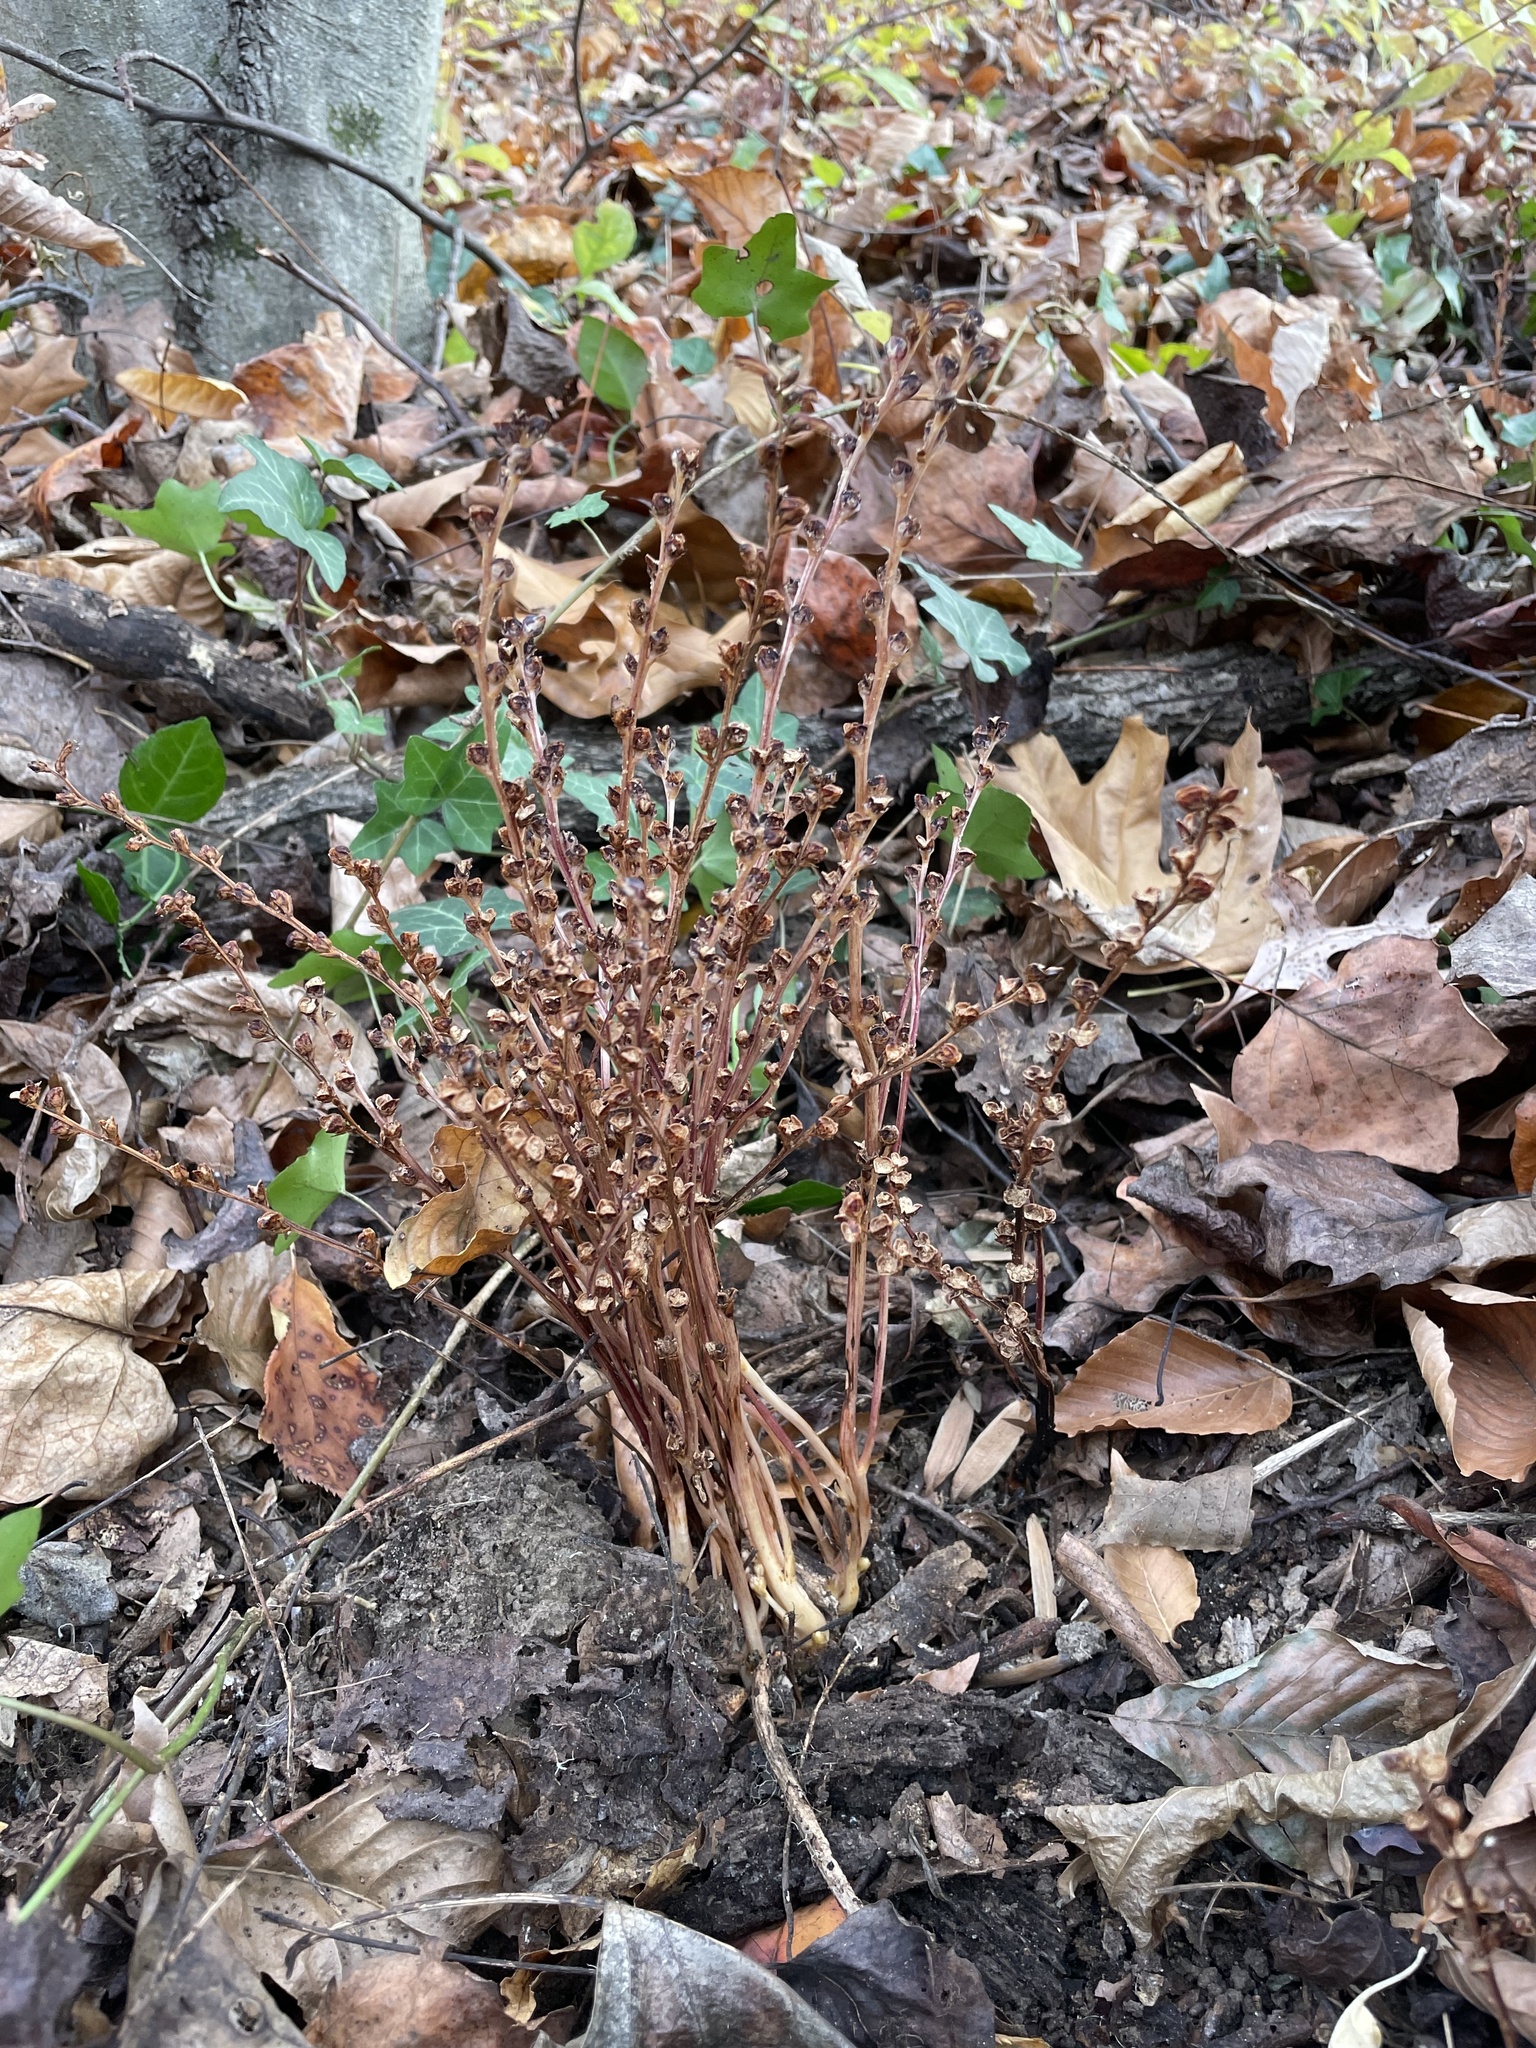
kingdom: Plantae
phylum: Tracheophyta
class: Magnoliopsida
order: Lamiales
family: Orobanchaceae
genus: Epifagus
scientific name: Epifagus virginiana
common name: Beechdrops
